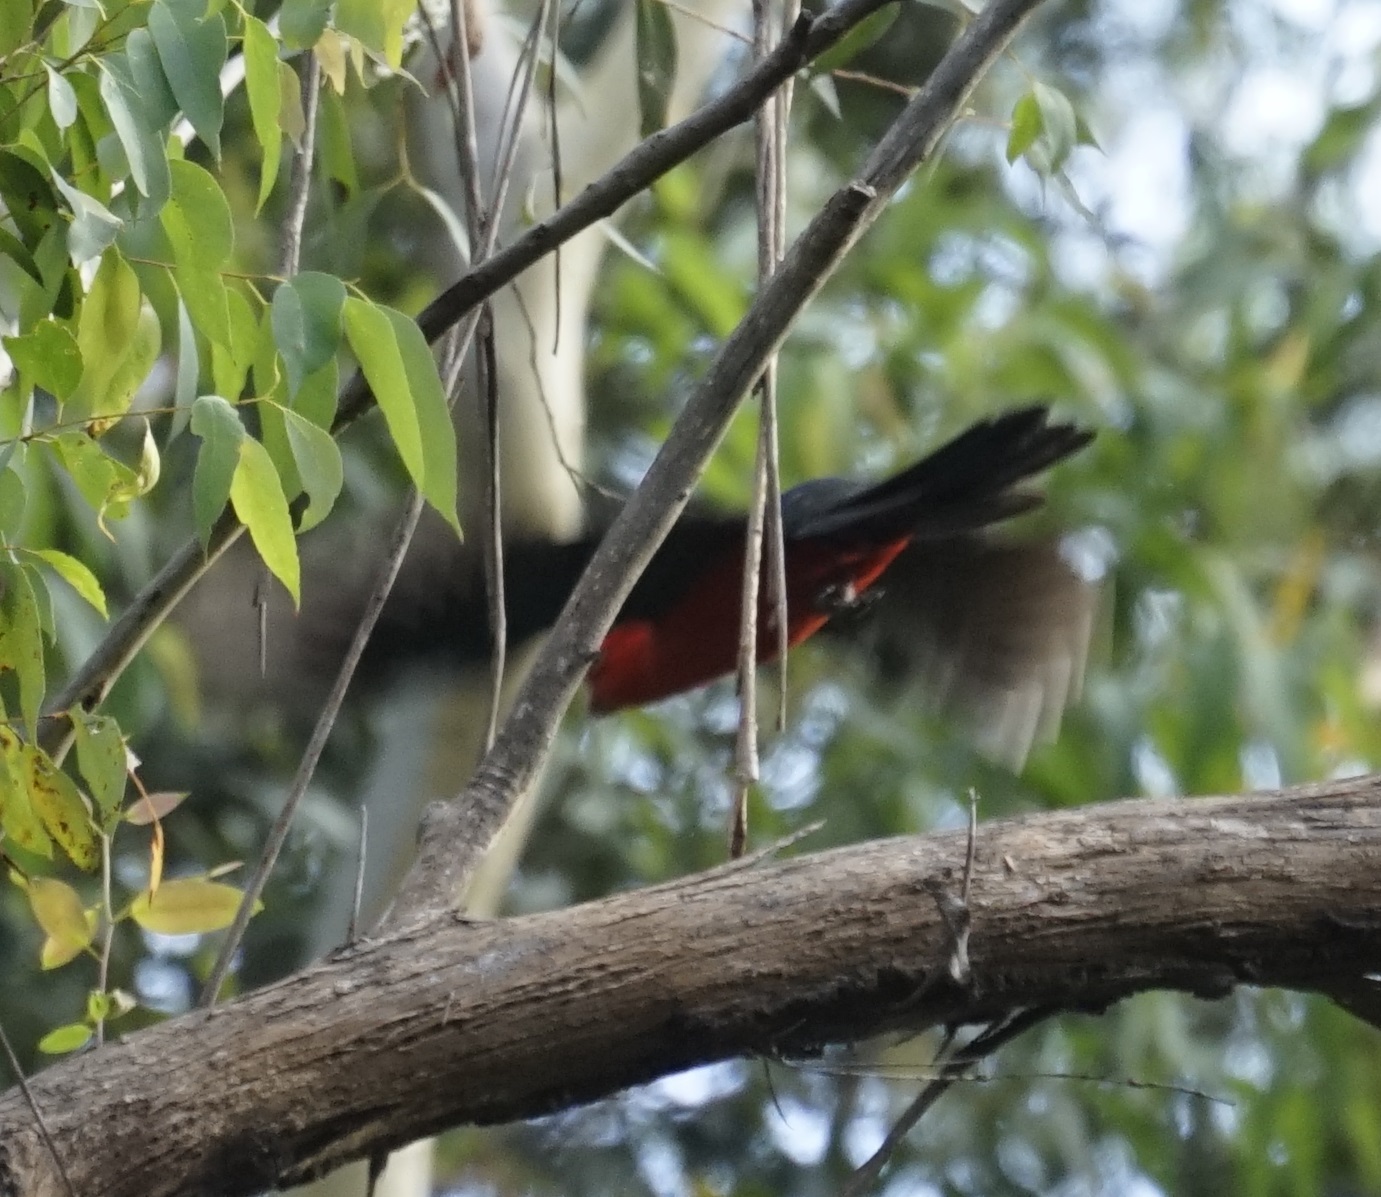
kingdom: Animalia
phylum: Chordata
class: Aves
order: Psittaciformes
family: Psittacidae
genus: Alisterus
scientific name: Alisterus scapularis
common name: Australian king parrot
